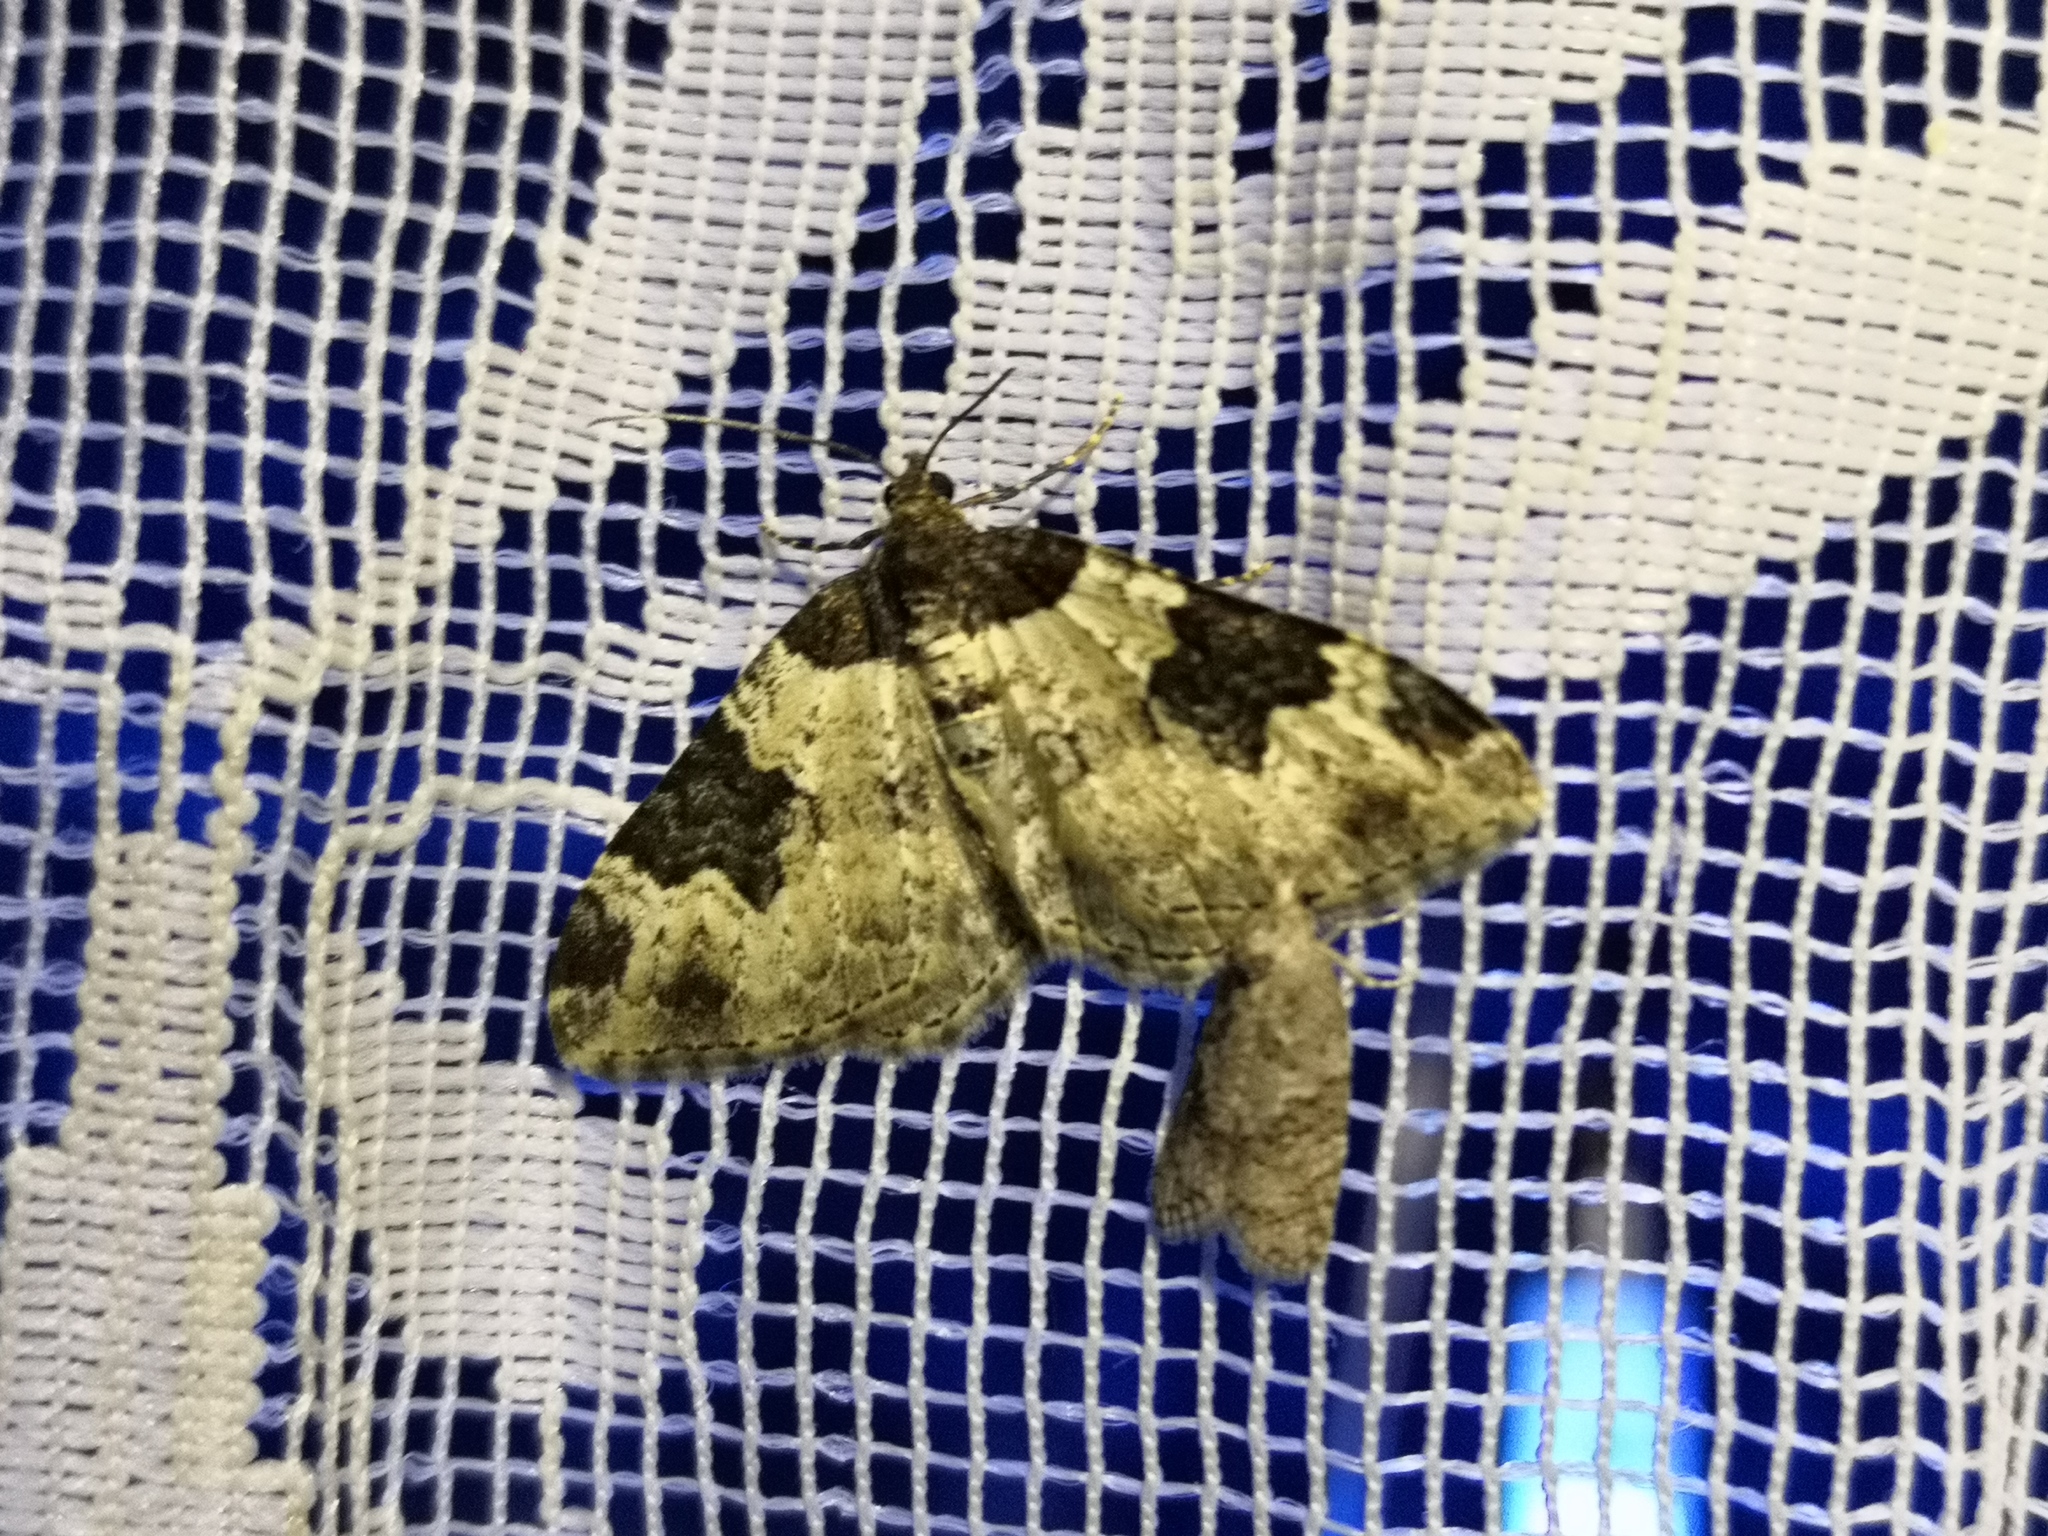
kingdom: Animalia
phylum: Arthropoda
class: Insecta
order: Lepidoptera
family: Geometridae
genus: Xanthorhoe
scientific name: Xanthorhoe fluctuata
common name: Garden carpet
